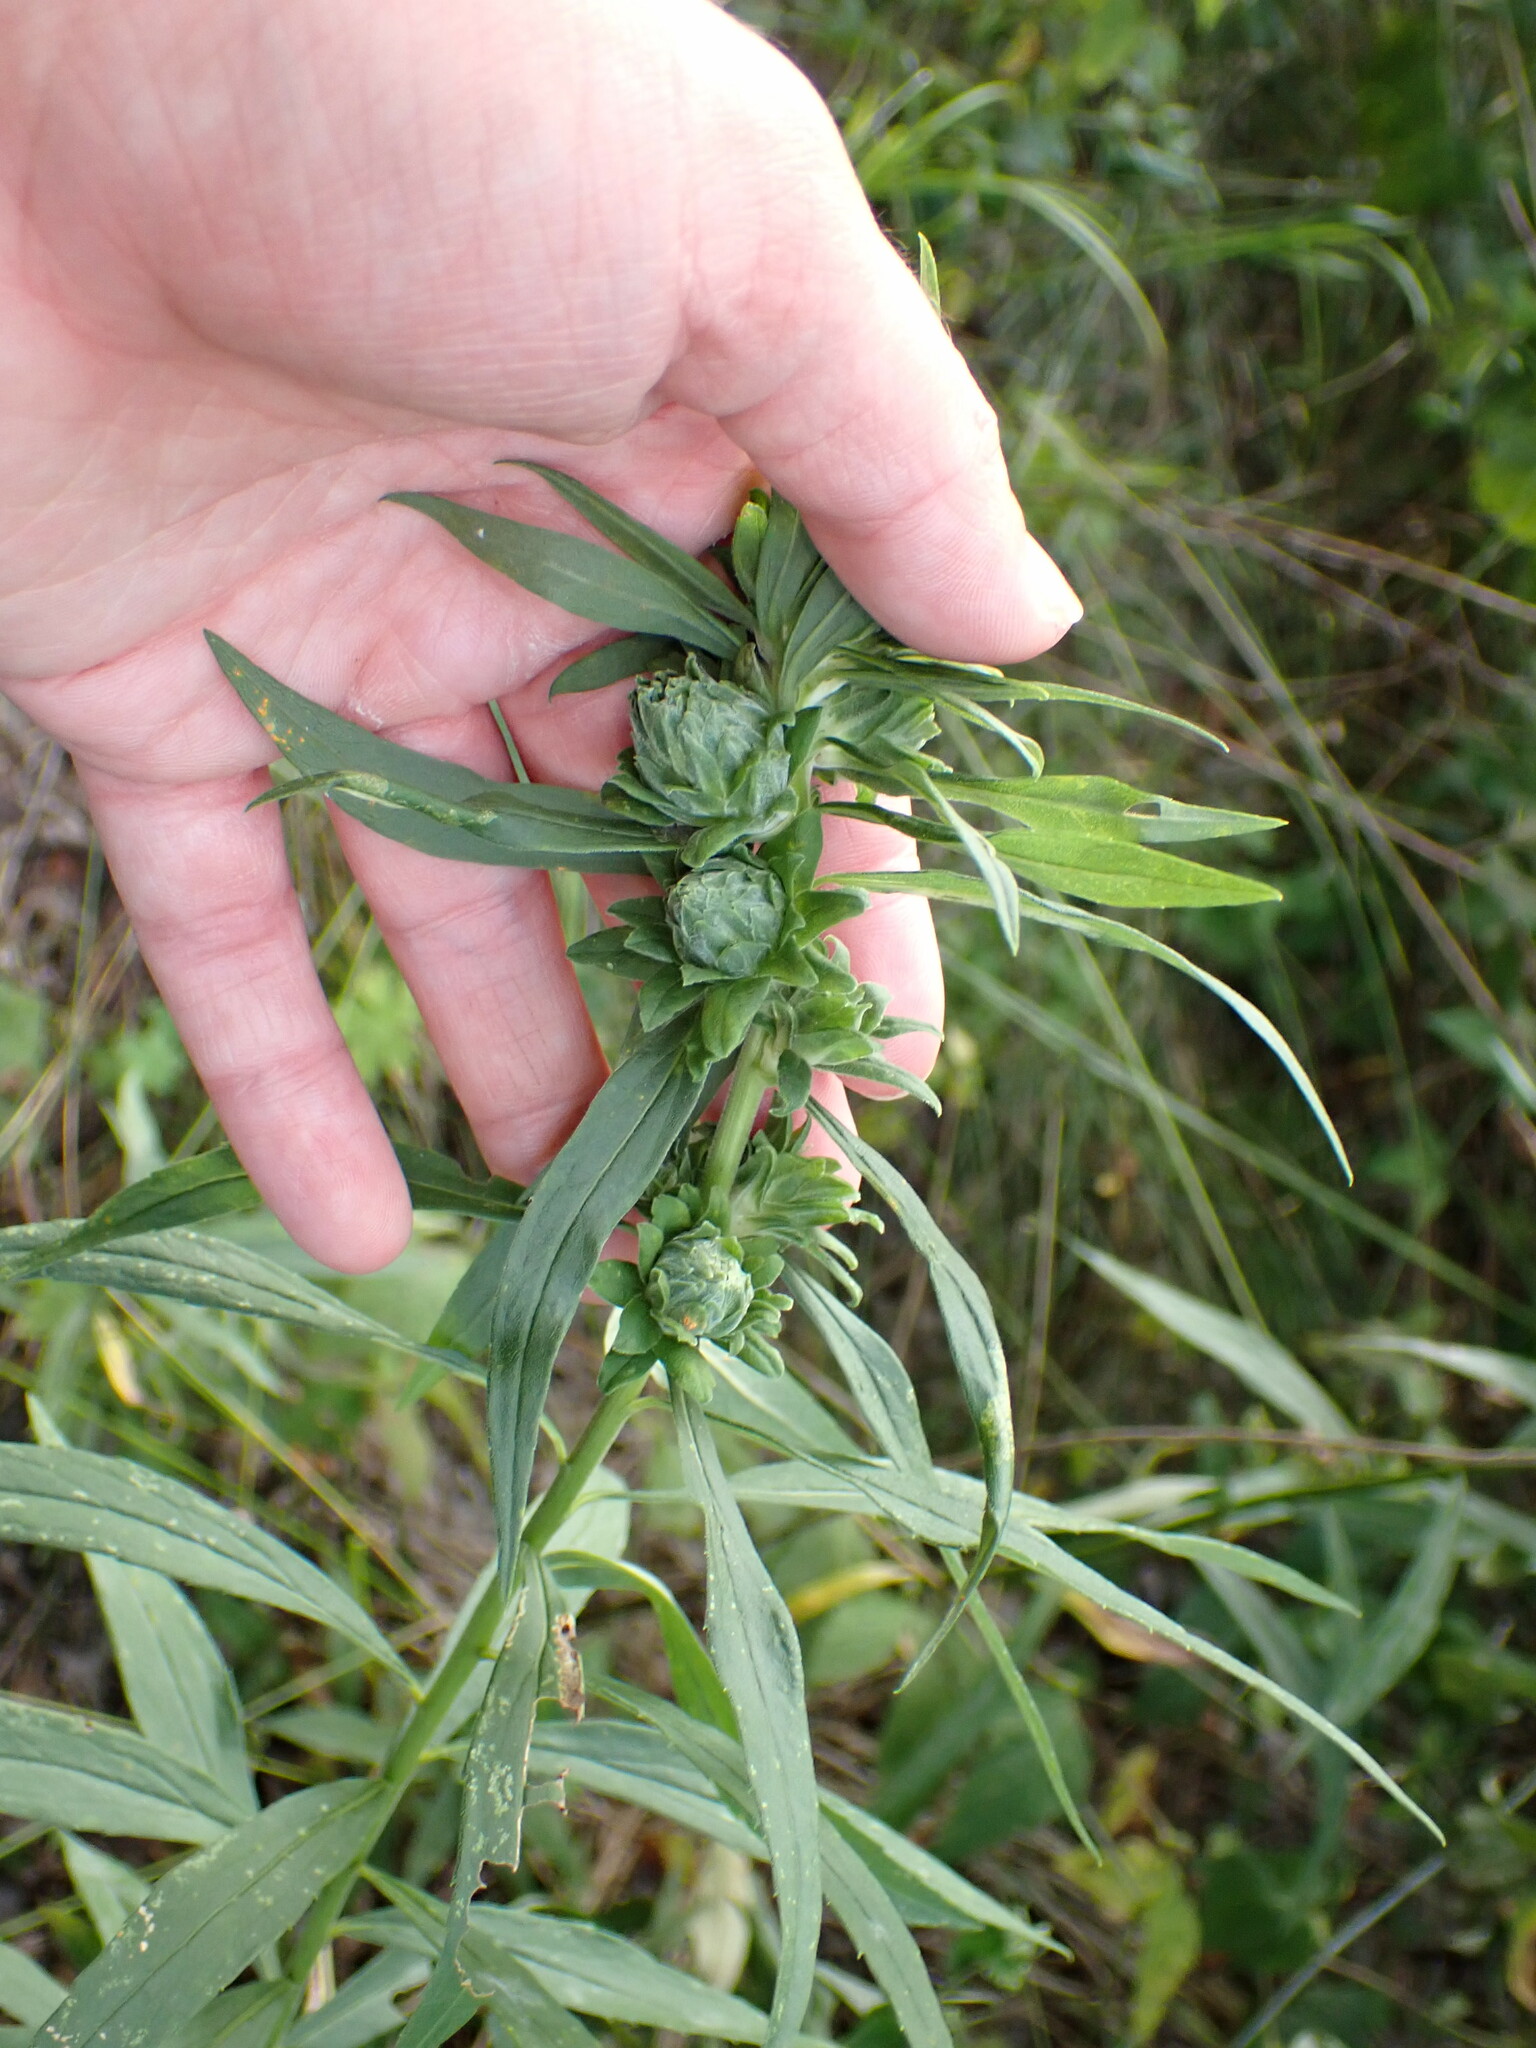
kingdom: Animalia
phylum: Arthropoda
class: Insecta
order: Diptera
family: Tephritidae
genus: Procecidochares
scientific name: Procecidochares atra
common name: Goldenrod brussels sprout gall fly
